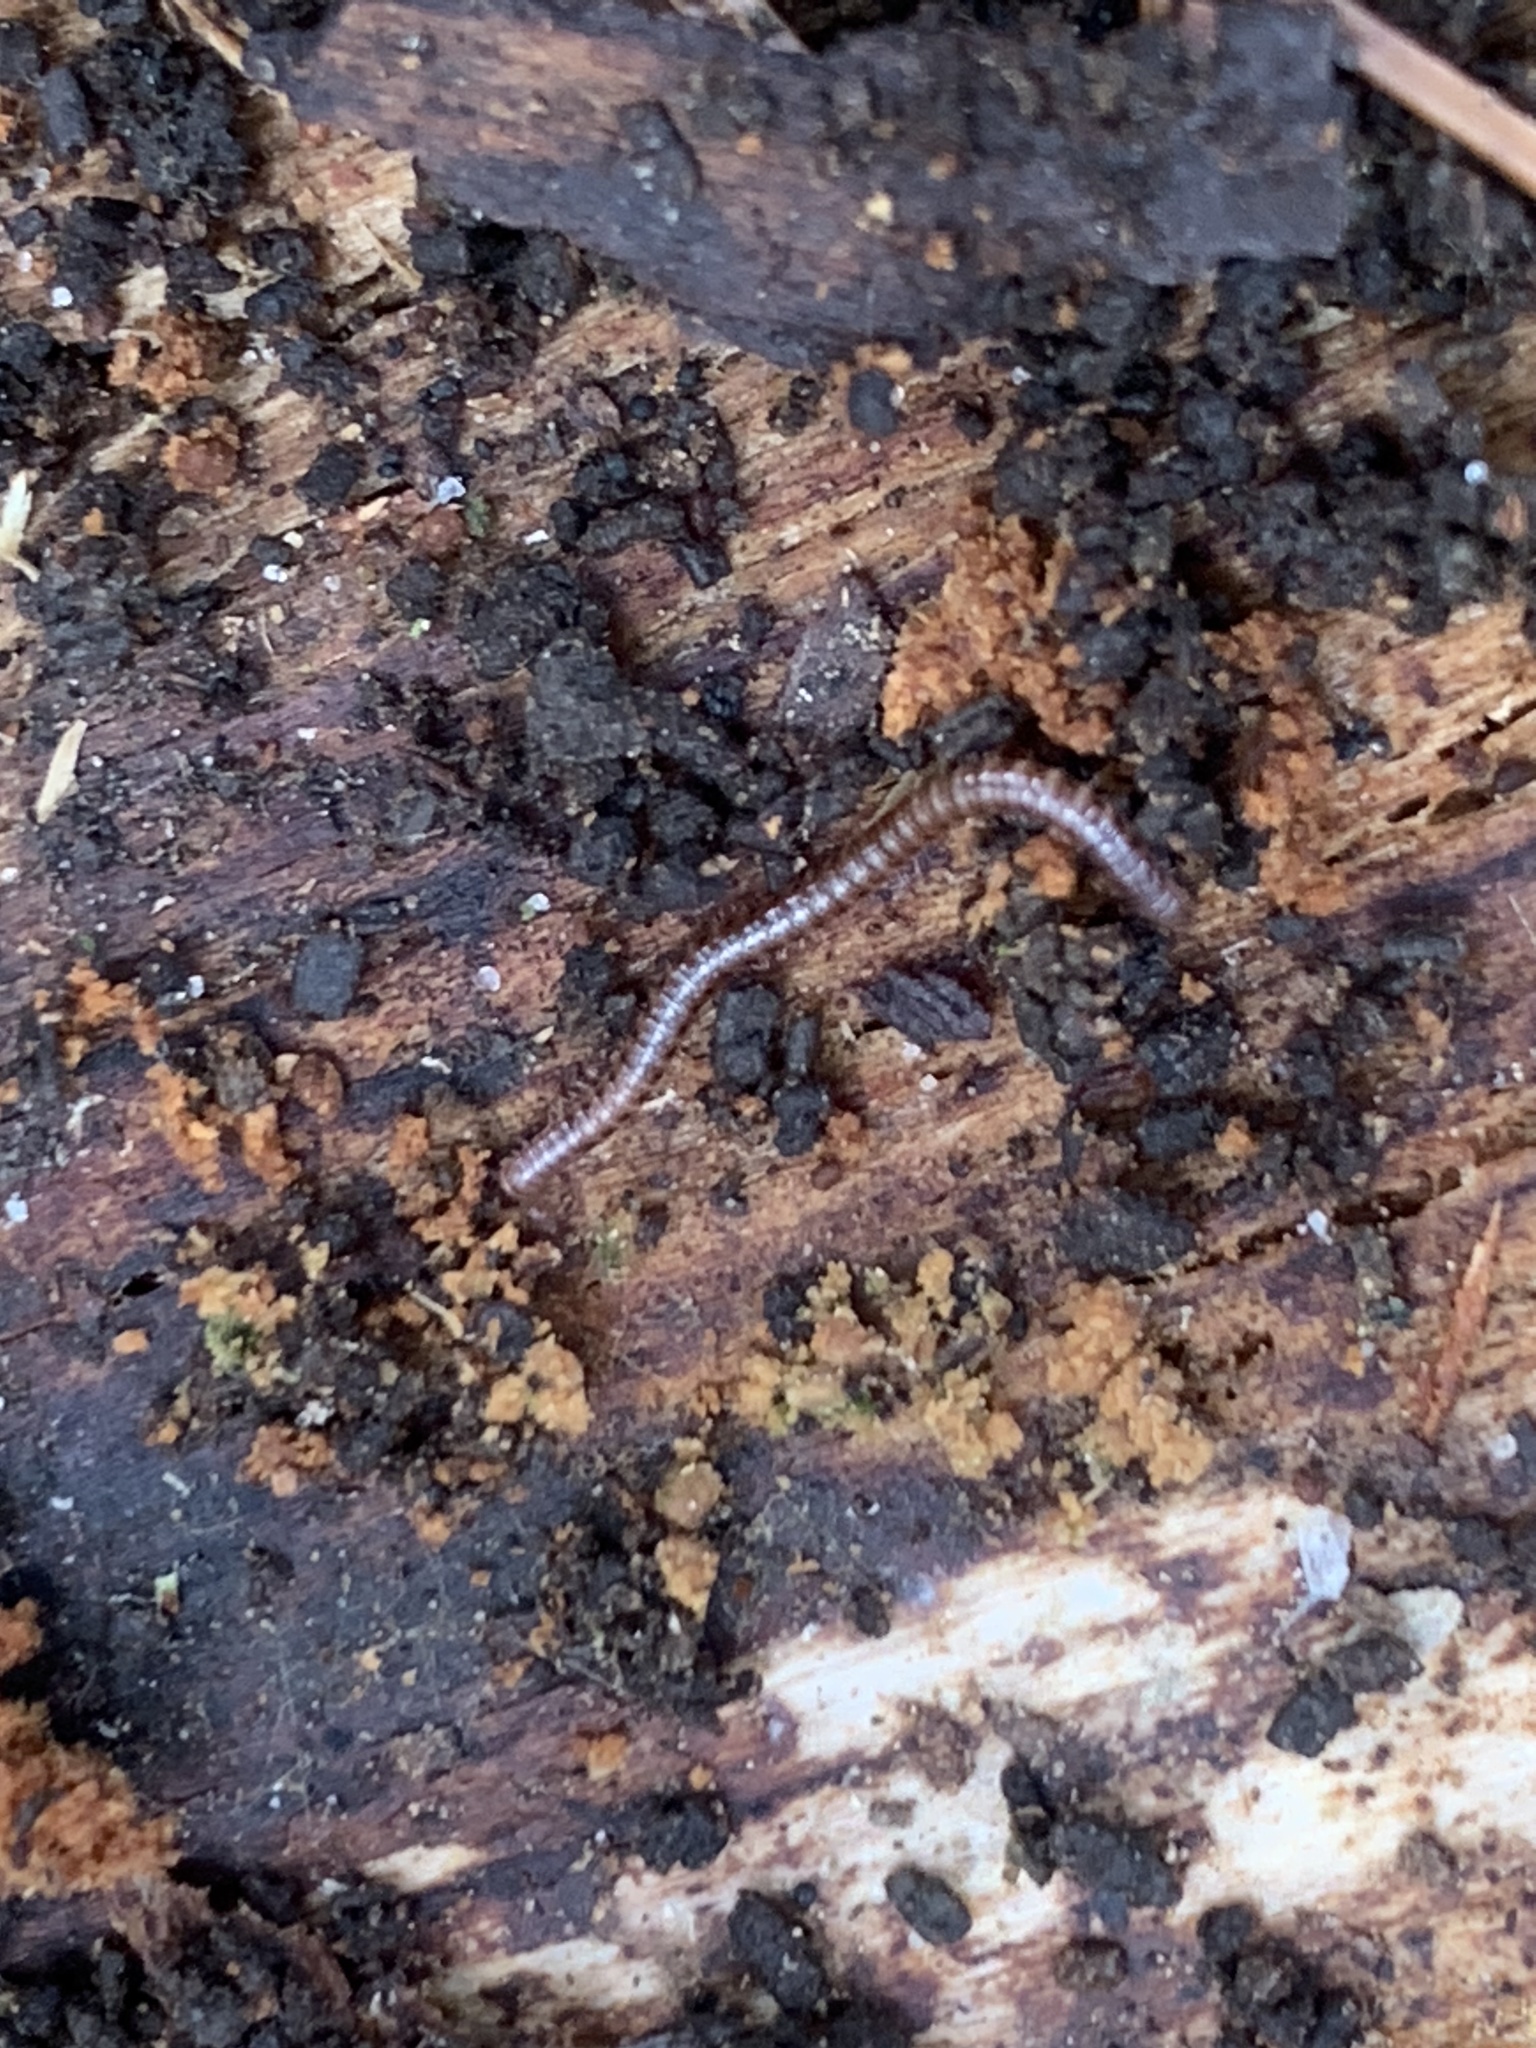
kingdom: Animalia
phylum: Arthropoda
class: Diplopoda
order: Julida
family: Blaniulidae
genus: Proteroiulus
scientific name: Proteroiulus fuscus
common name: Millipede
